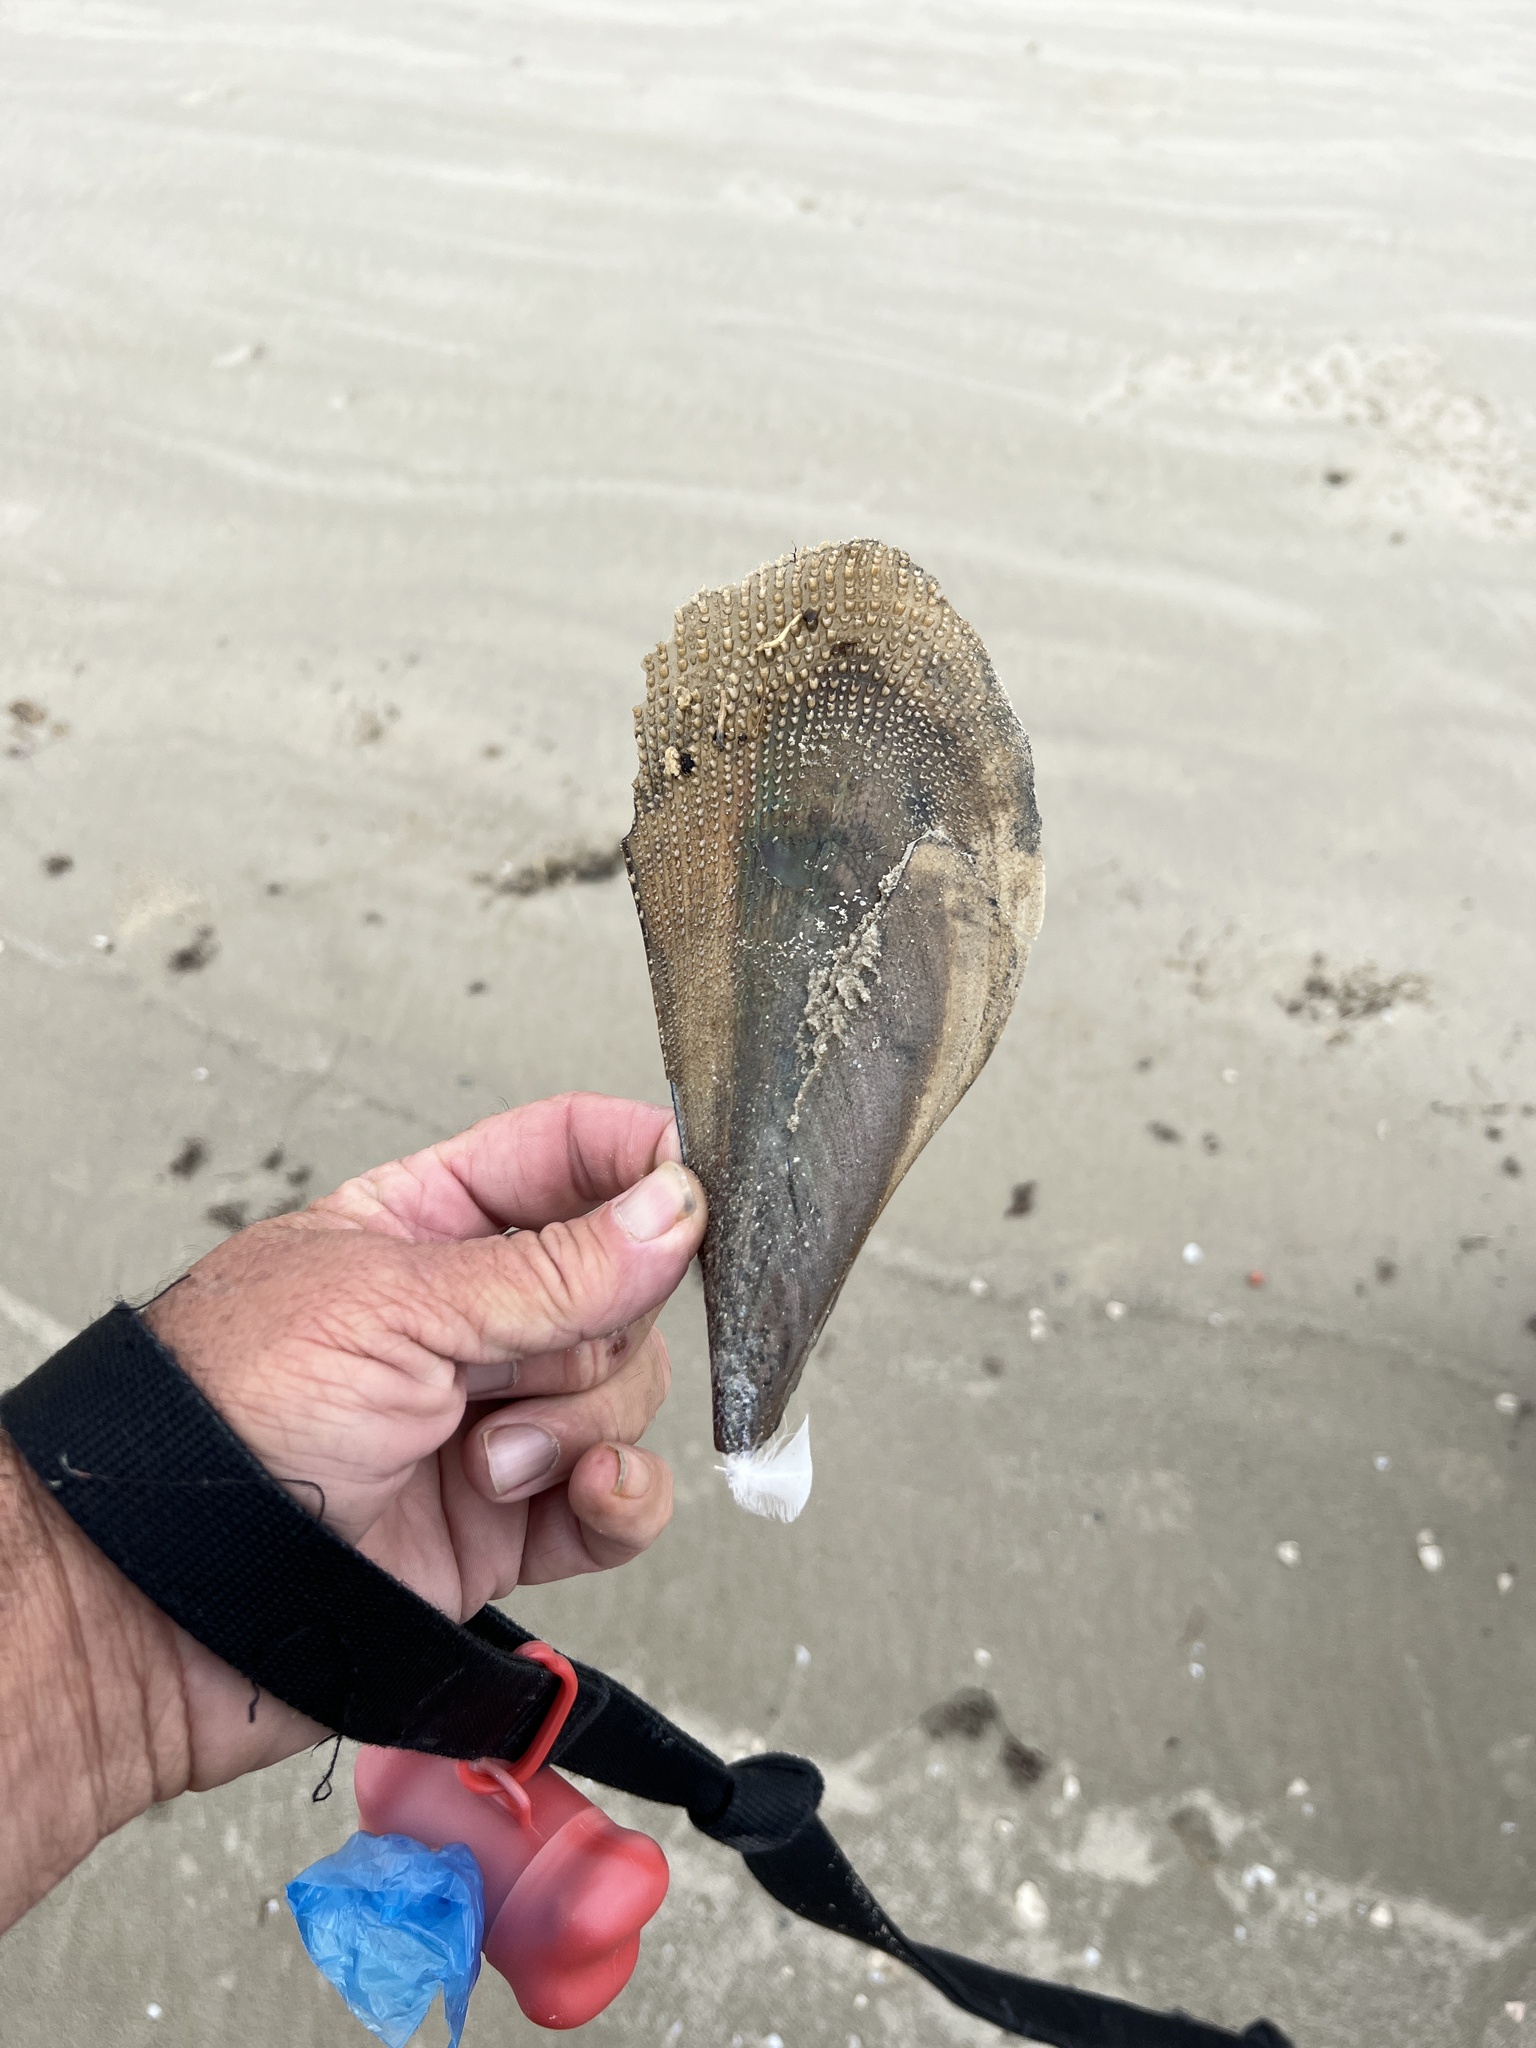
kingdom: Animalia
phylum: Mollusca
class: Bivalvia
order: Ostreida
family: Pinnidae
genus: Atrina
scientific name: Atrina serrata
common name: Saw-toothed penshell
